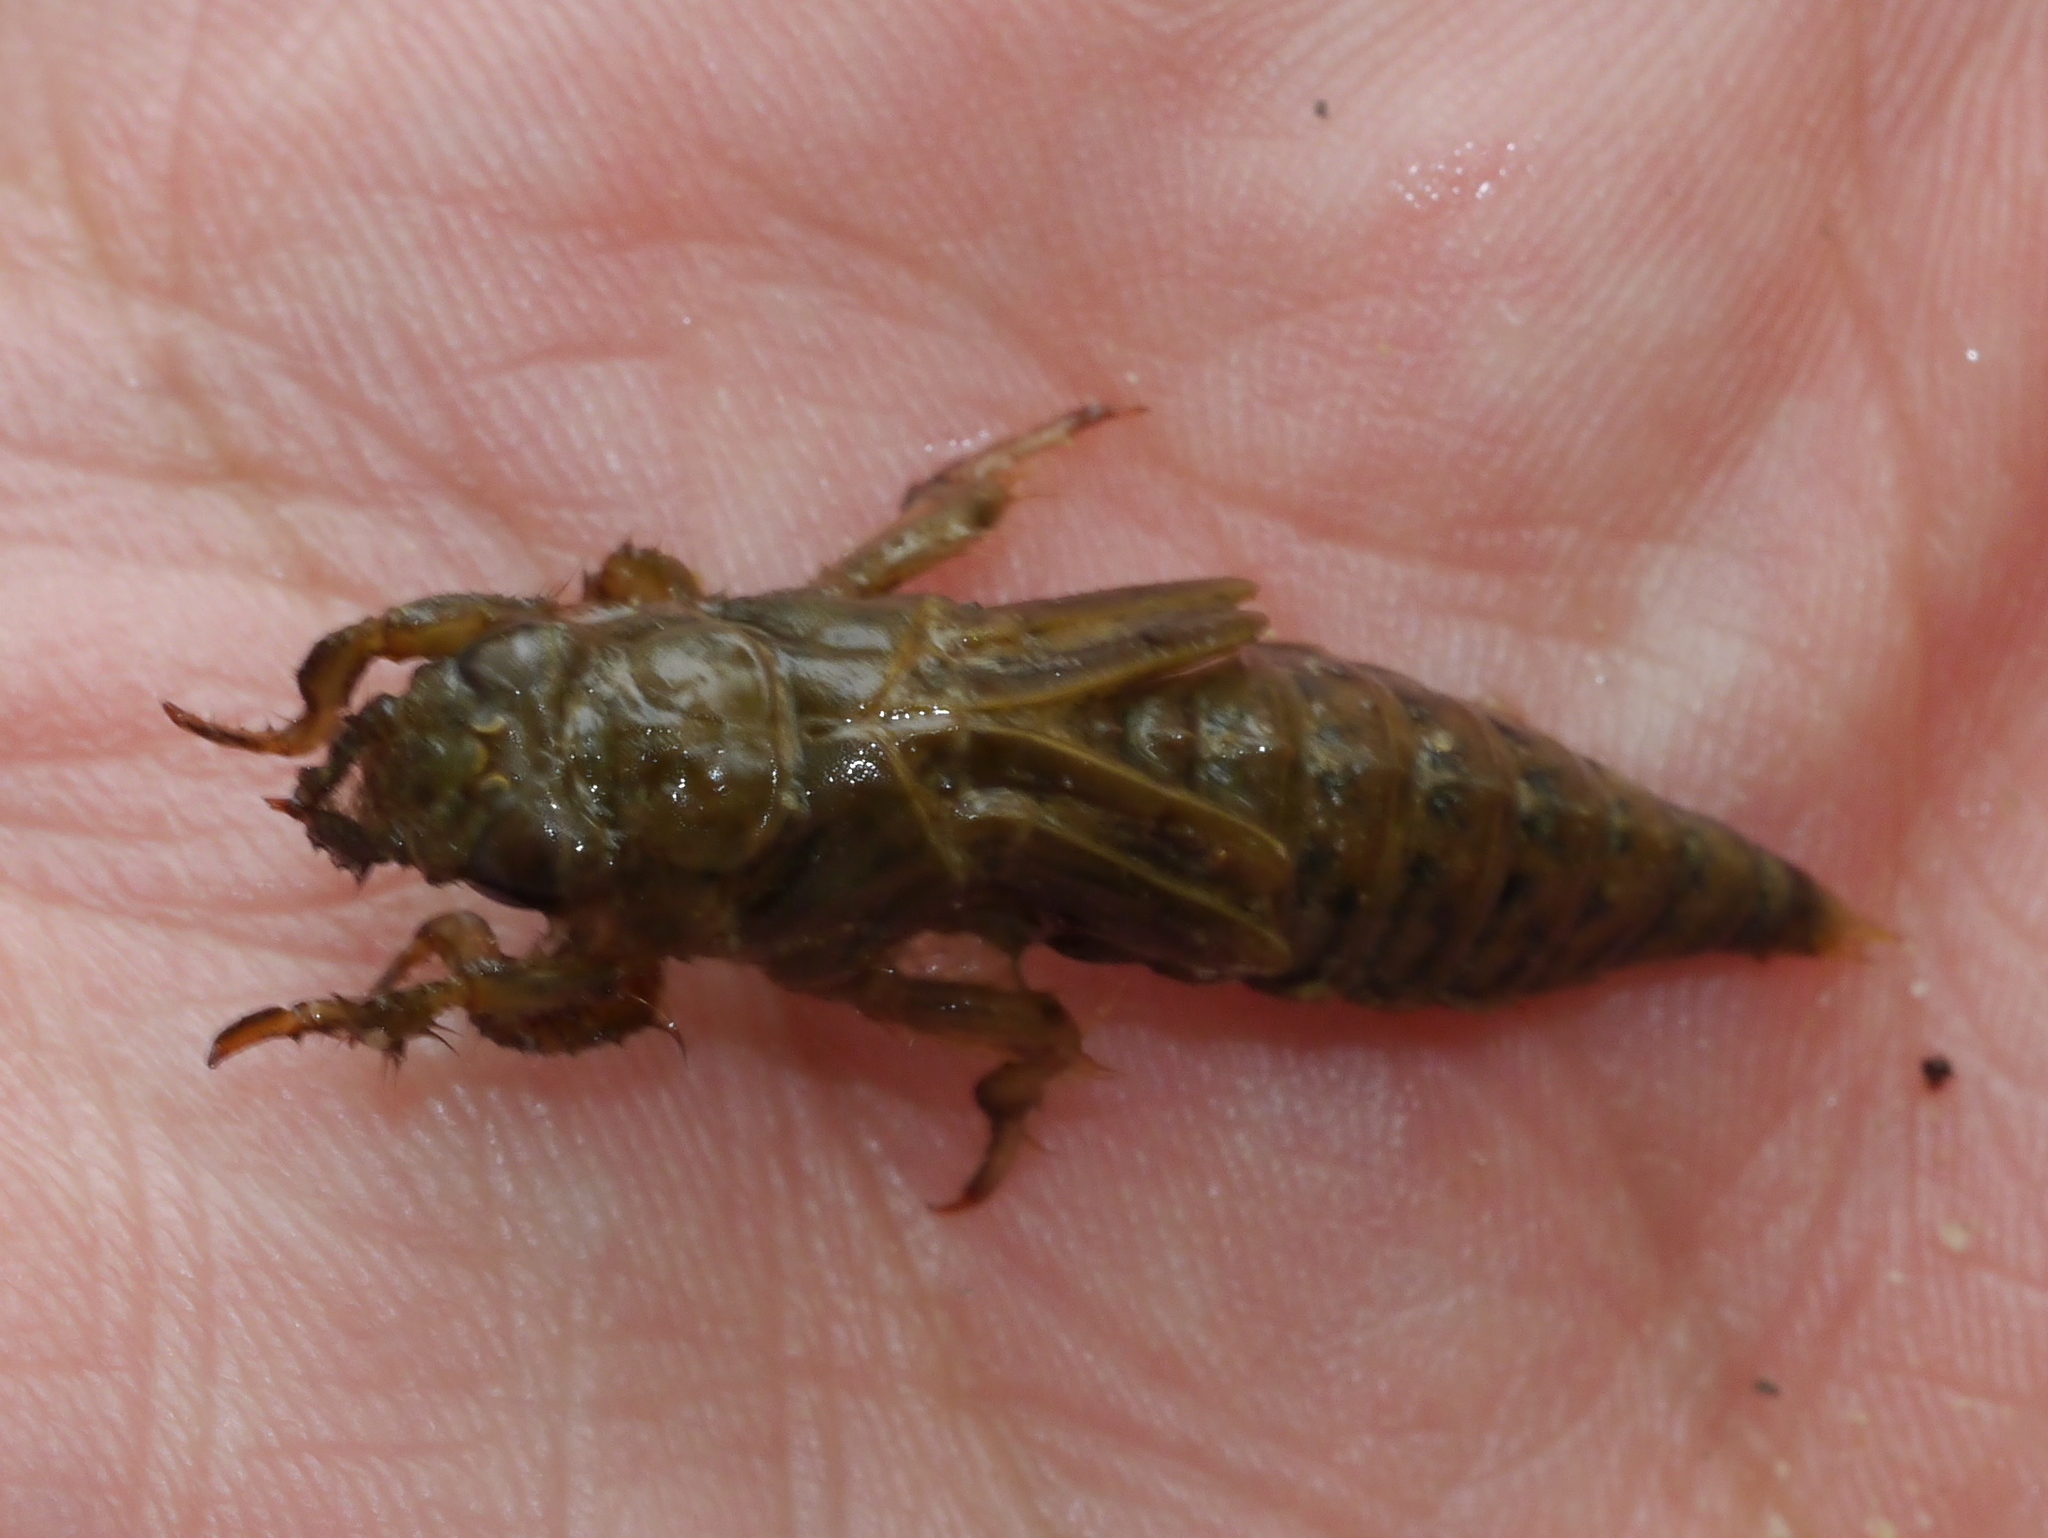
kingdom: Animalia
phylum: Arthropoda
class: Insecta
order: Odonata
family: Gomphidae
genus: Progomphus
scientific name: Progomphus obscurus
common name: Common sanddragon
